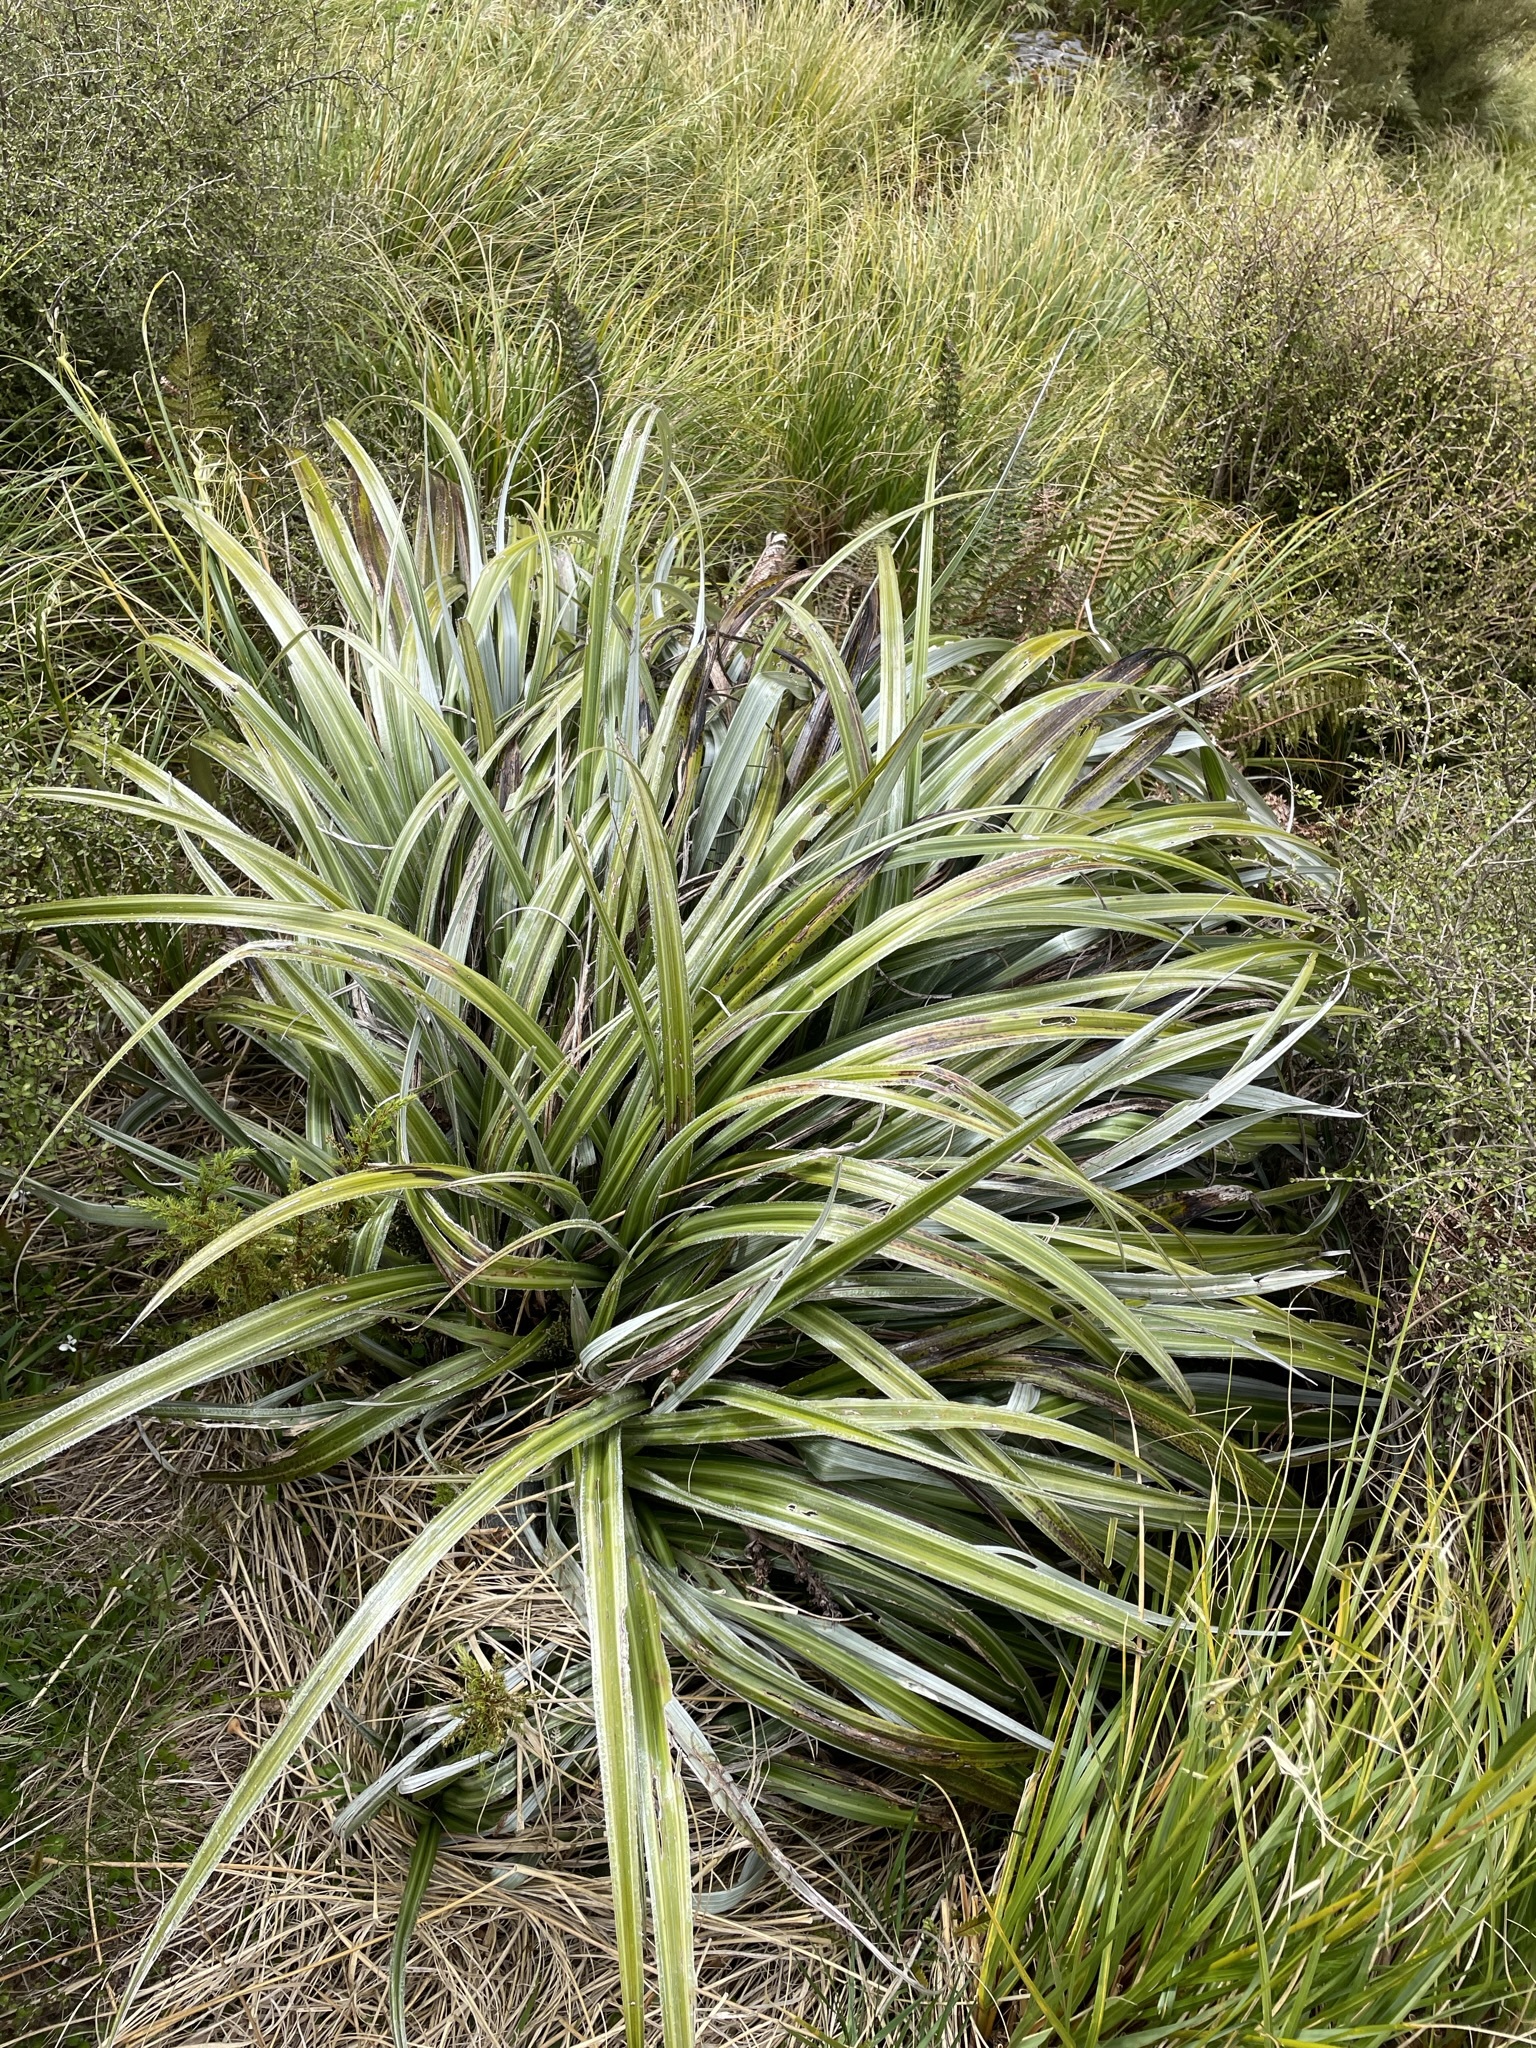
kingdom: Plantae
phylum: Tracheophyta
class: Liliopsida
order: Asparagales
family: Asteliaceae
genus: Astelia
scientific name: Astelia nervosa
